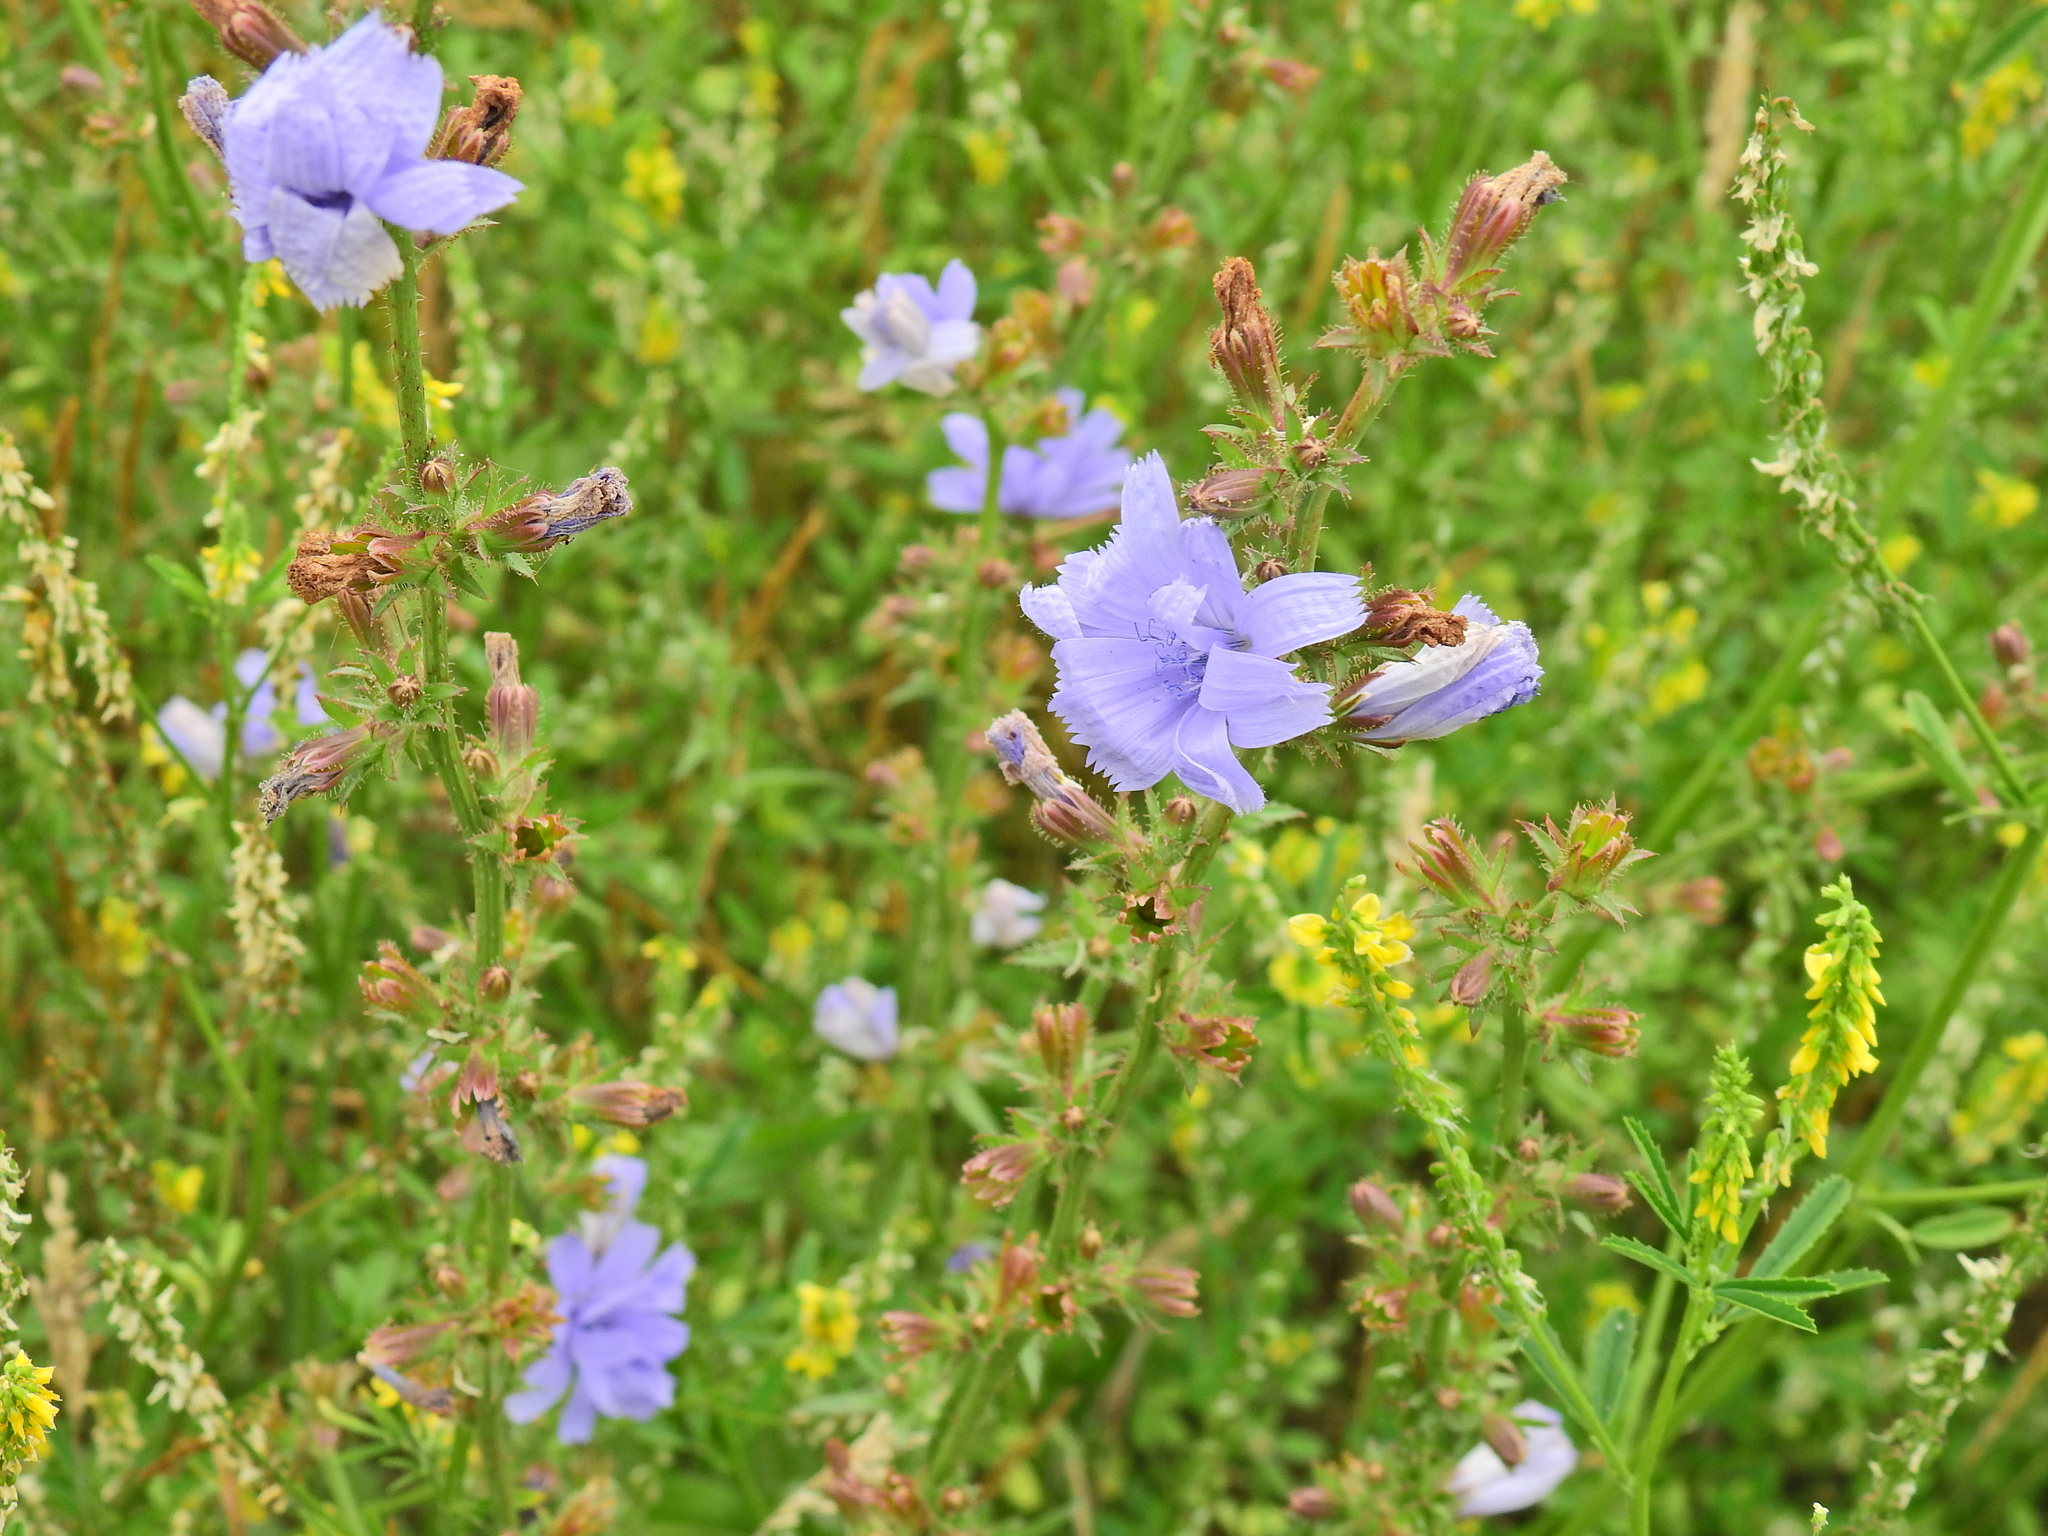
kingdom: Plantae
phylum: Tracheophyta
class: Magnoliopsida
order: Asterales
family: Asteraceae
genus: Cichorium
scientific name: Cichorium intybus
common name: Chicory
